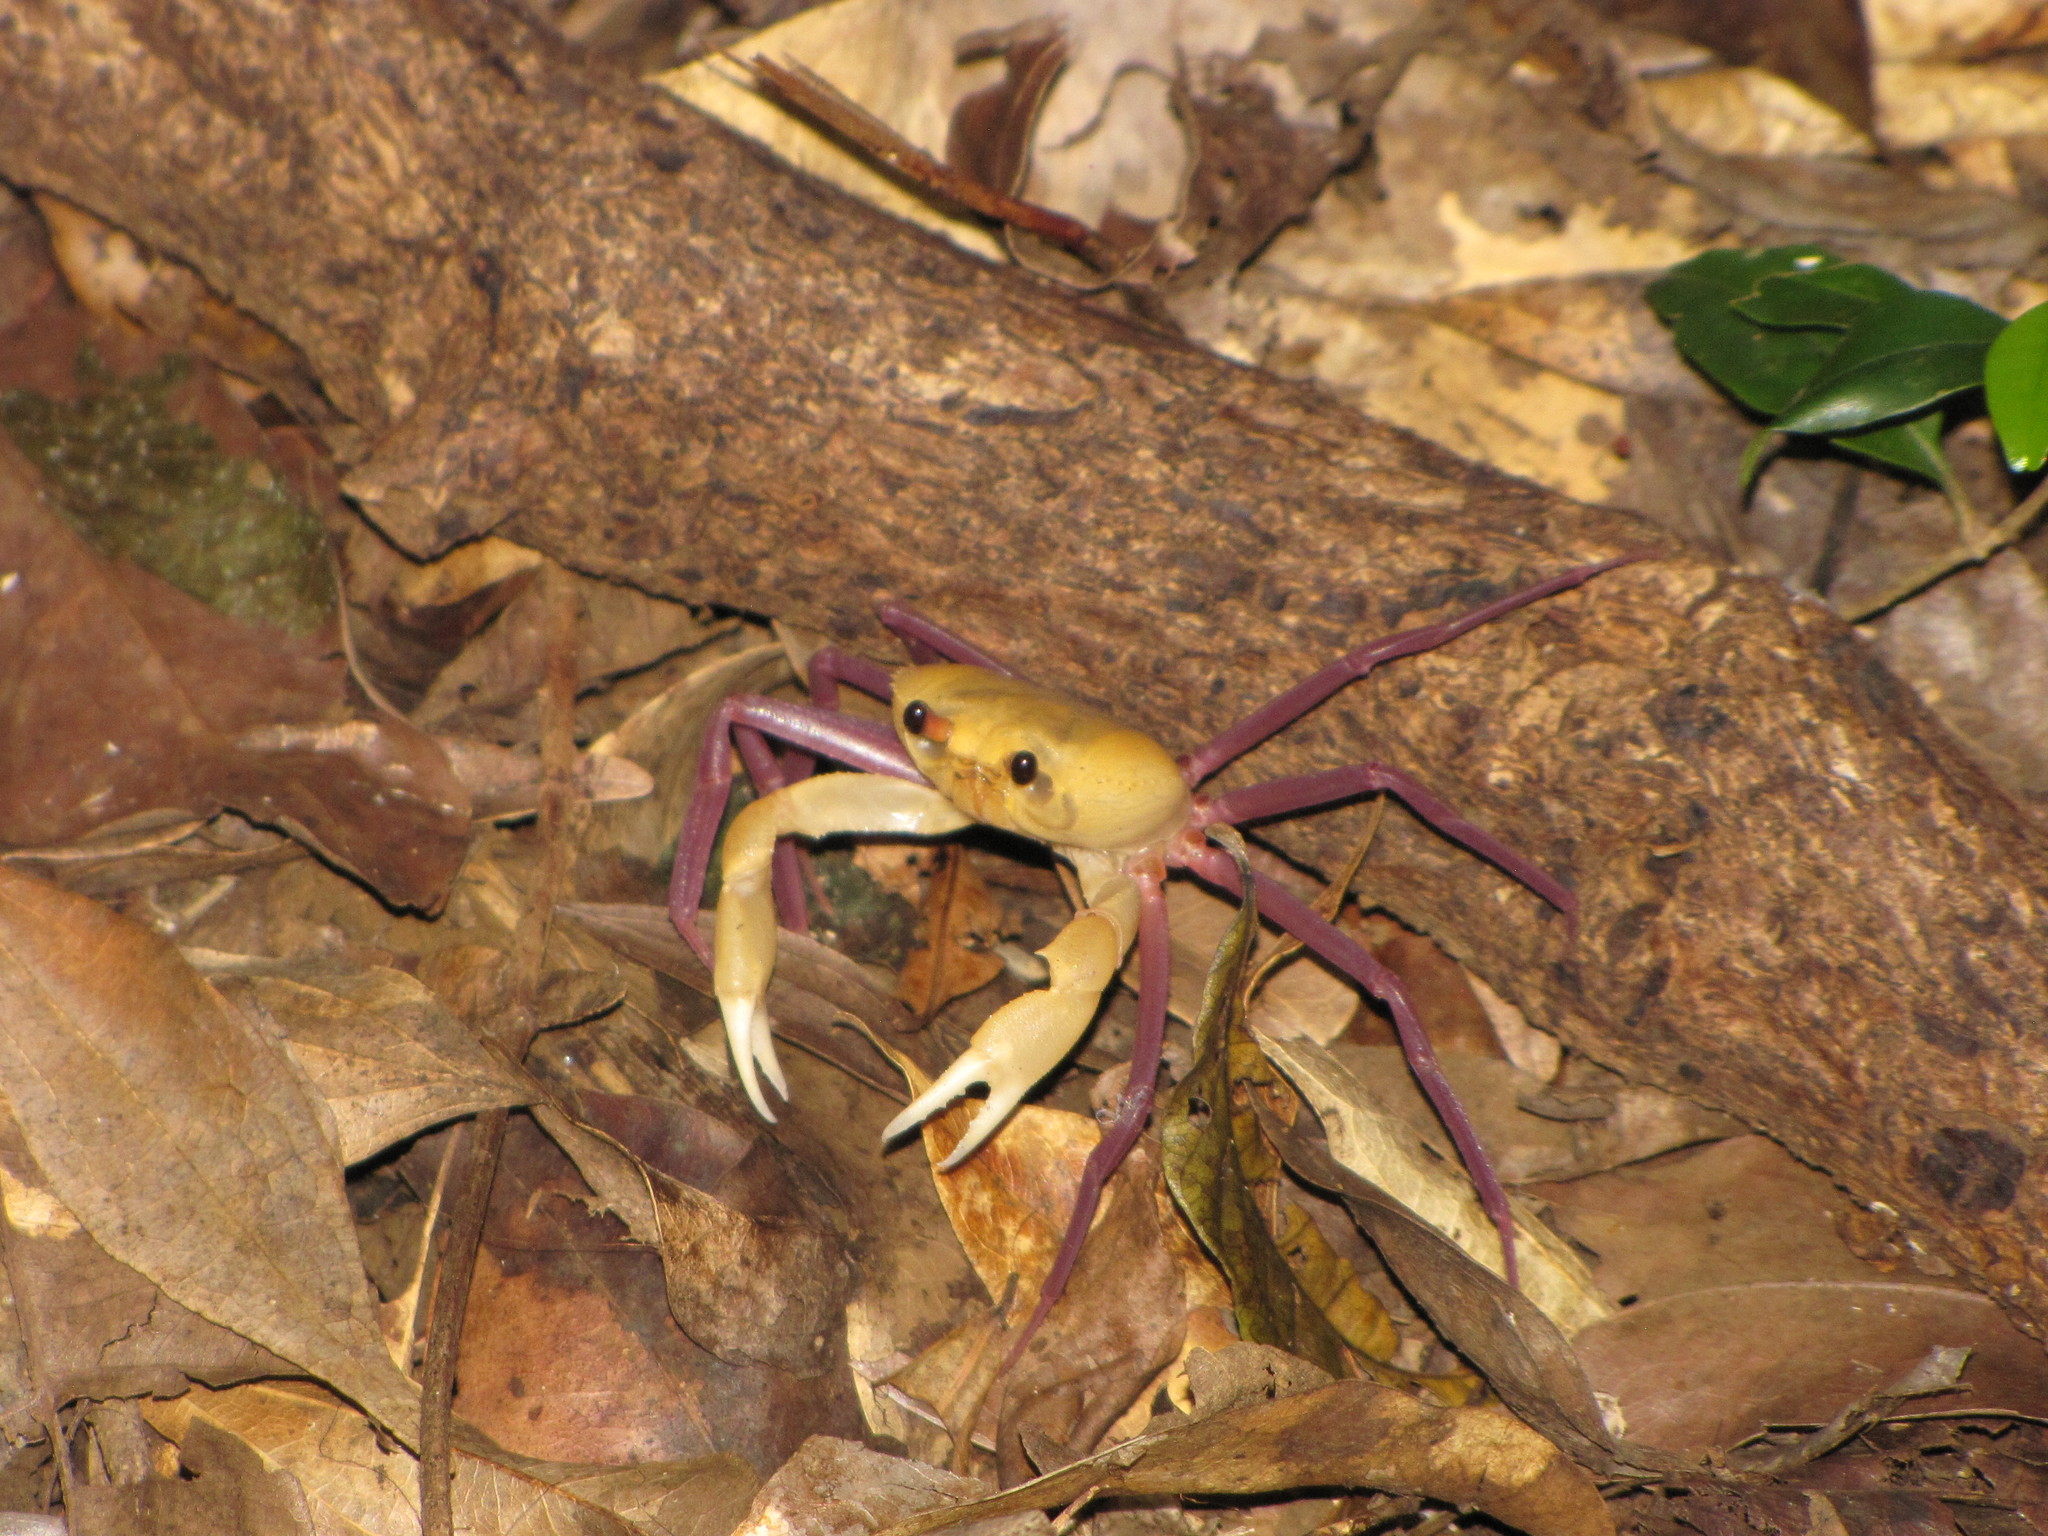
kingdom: Animalia
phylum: Arthropoda
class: Malacostraca
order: Decapoda
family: Deckeniidae
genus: Madagapotamon
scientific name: Madagapotamon humberti
